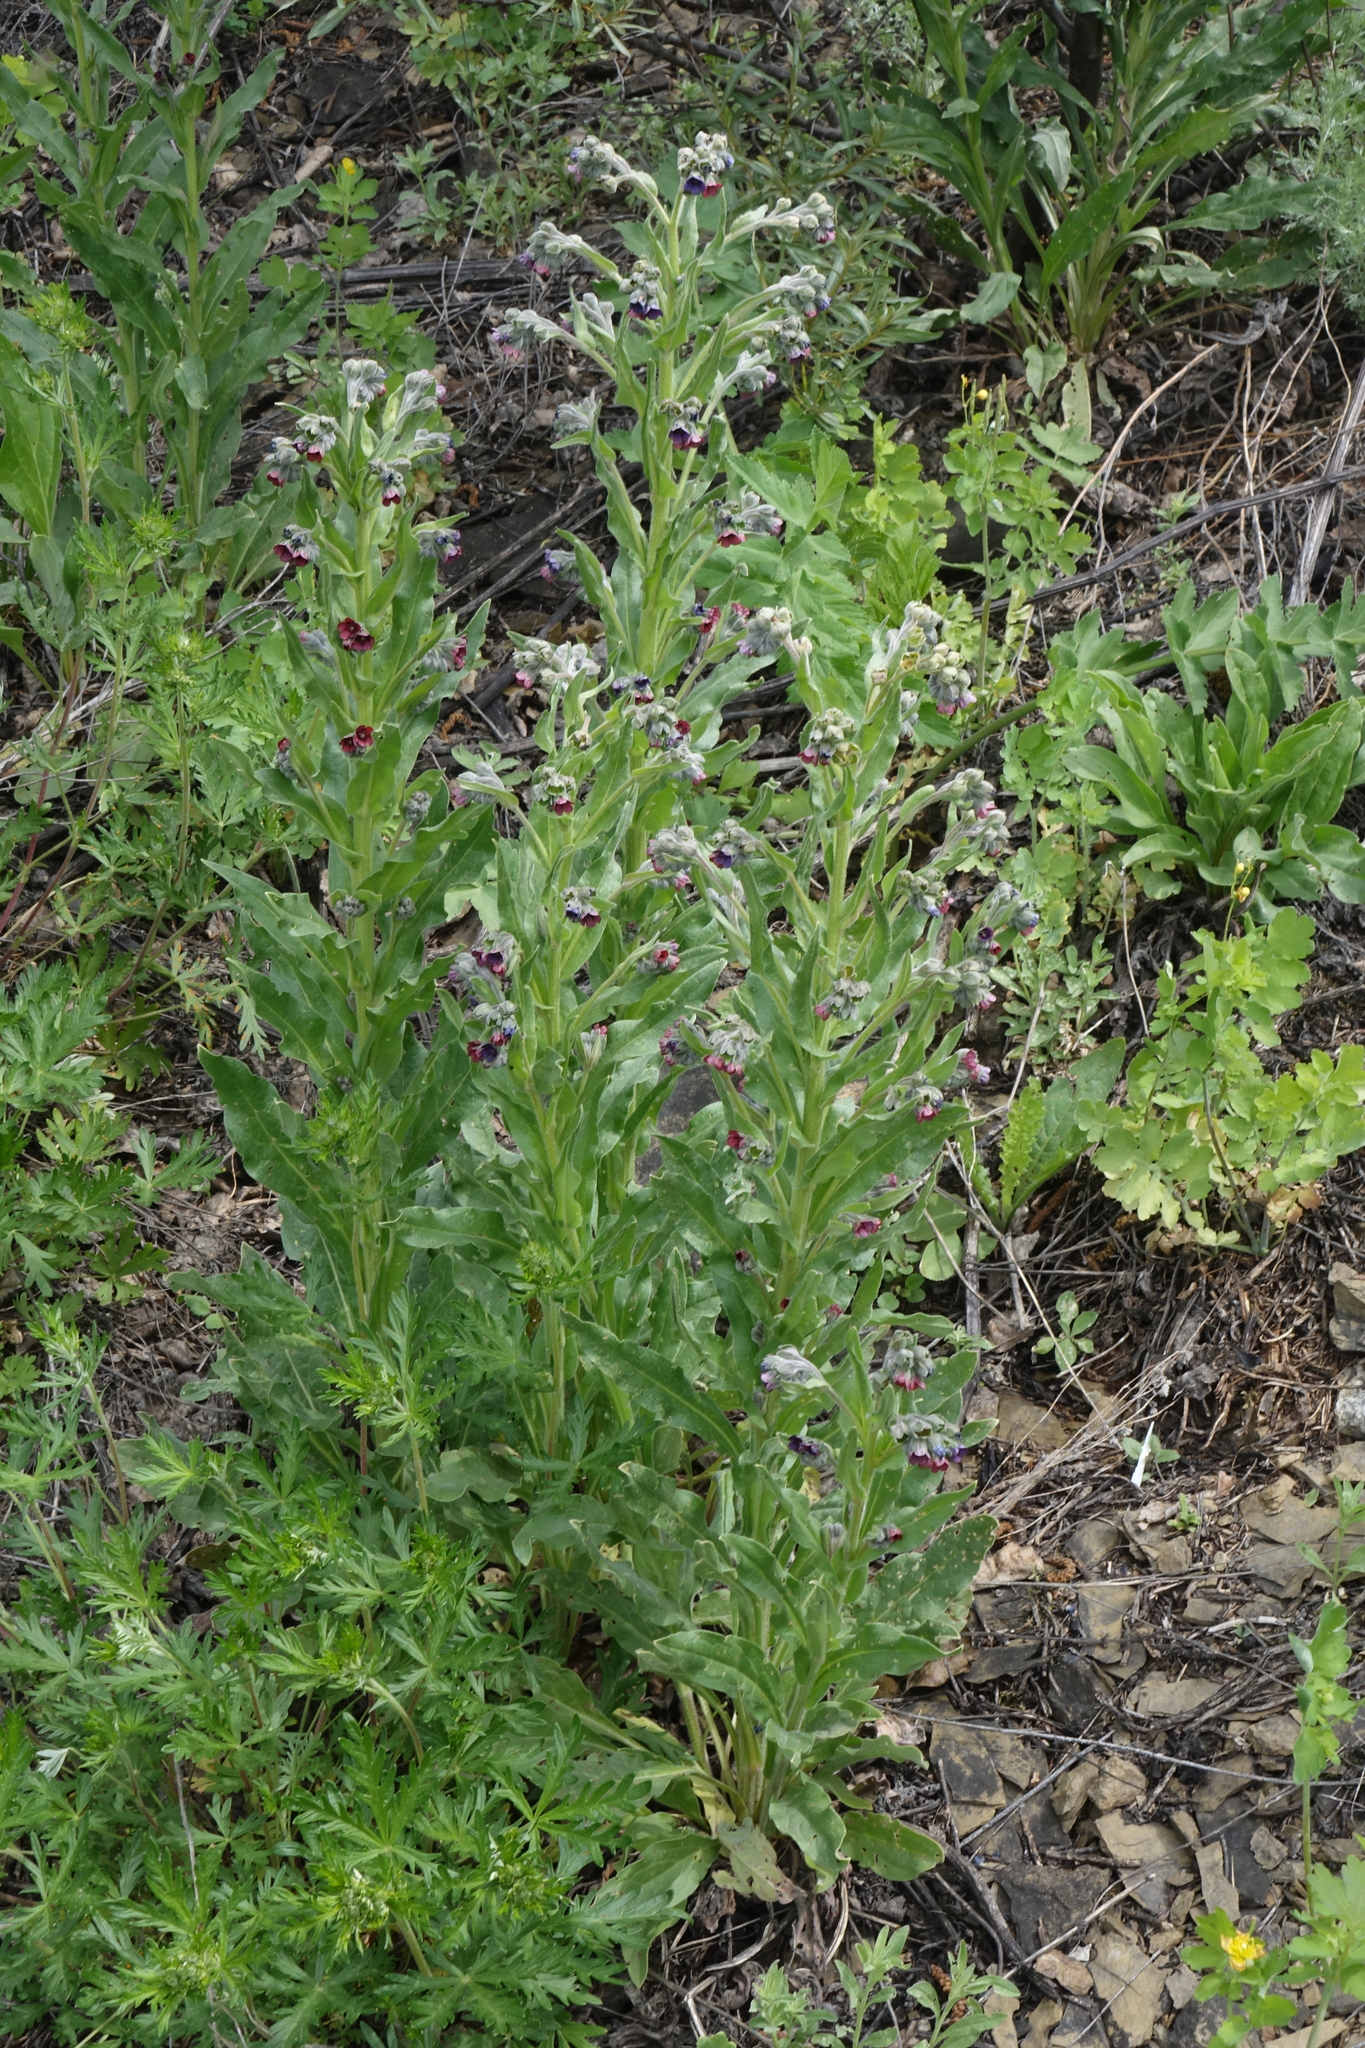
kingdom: Plantae
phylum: Tracheophyta
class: Magnoliopsida
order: Boraginales
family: Boraginaceae
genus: Cynoglossum
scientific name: Cynoglossum officinale
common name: Hound's-tongue
